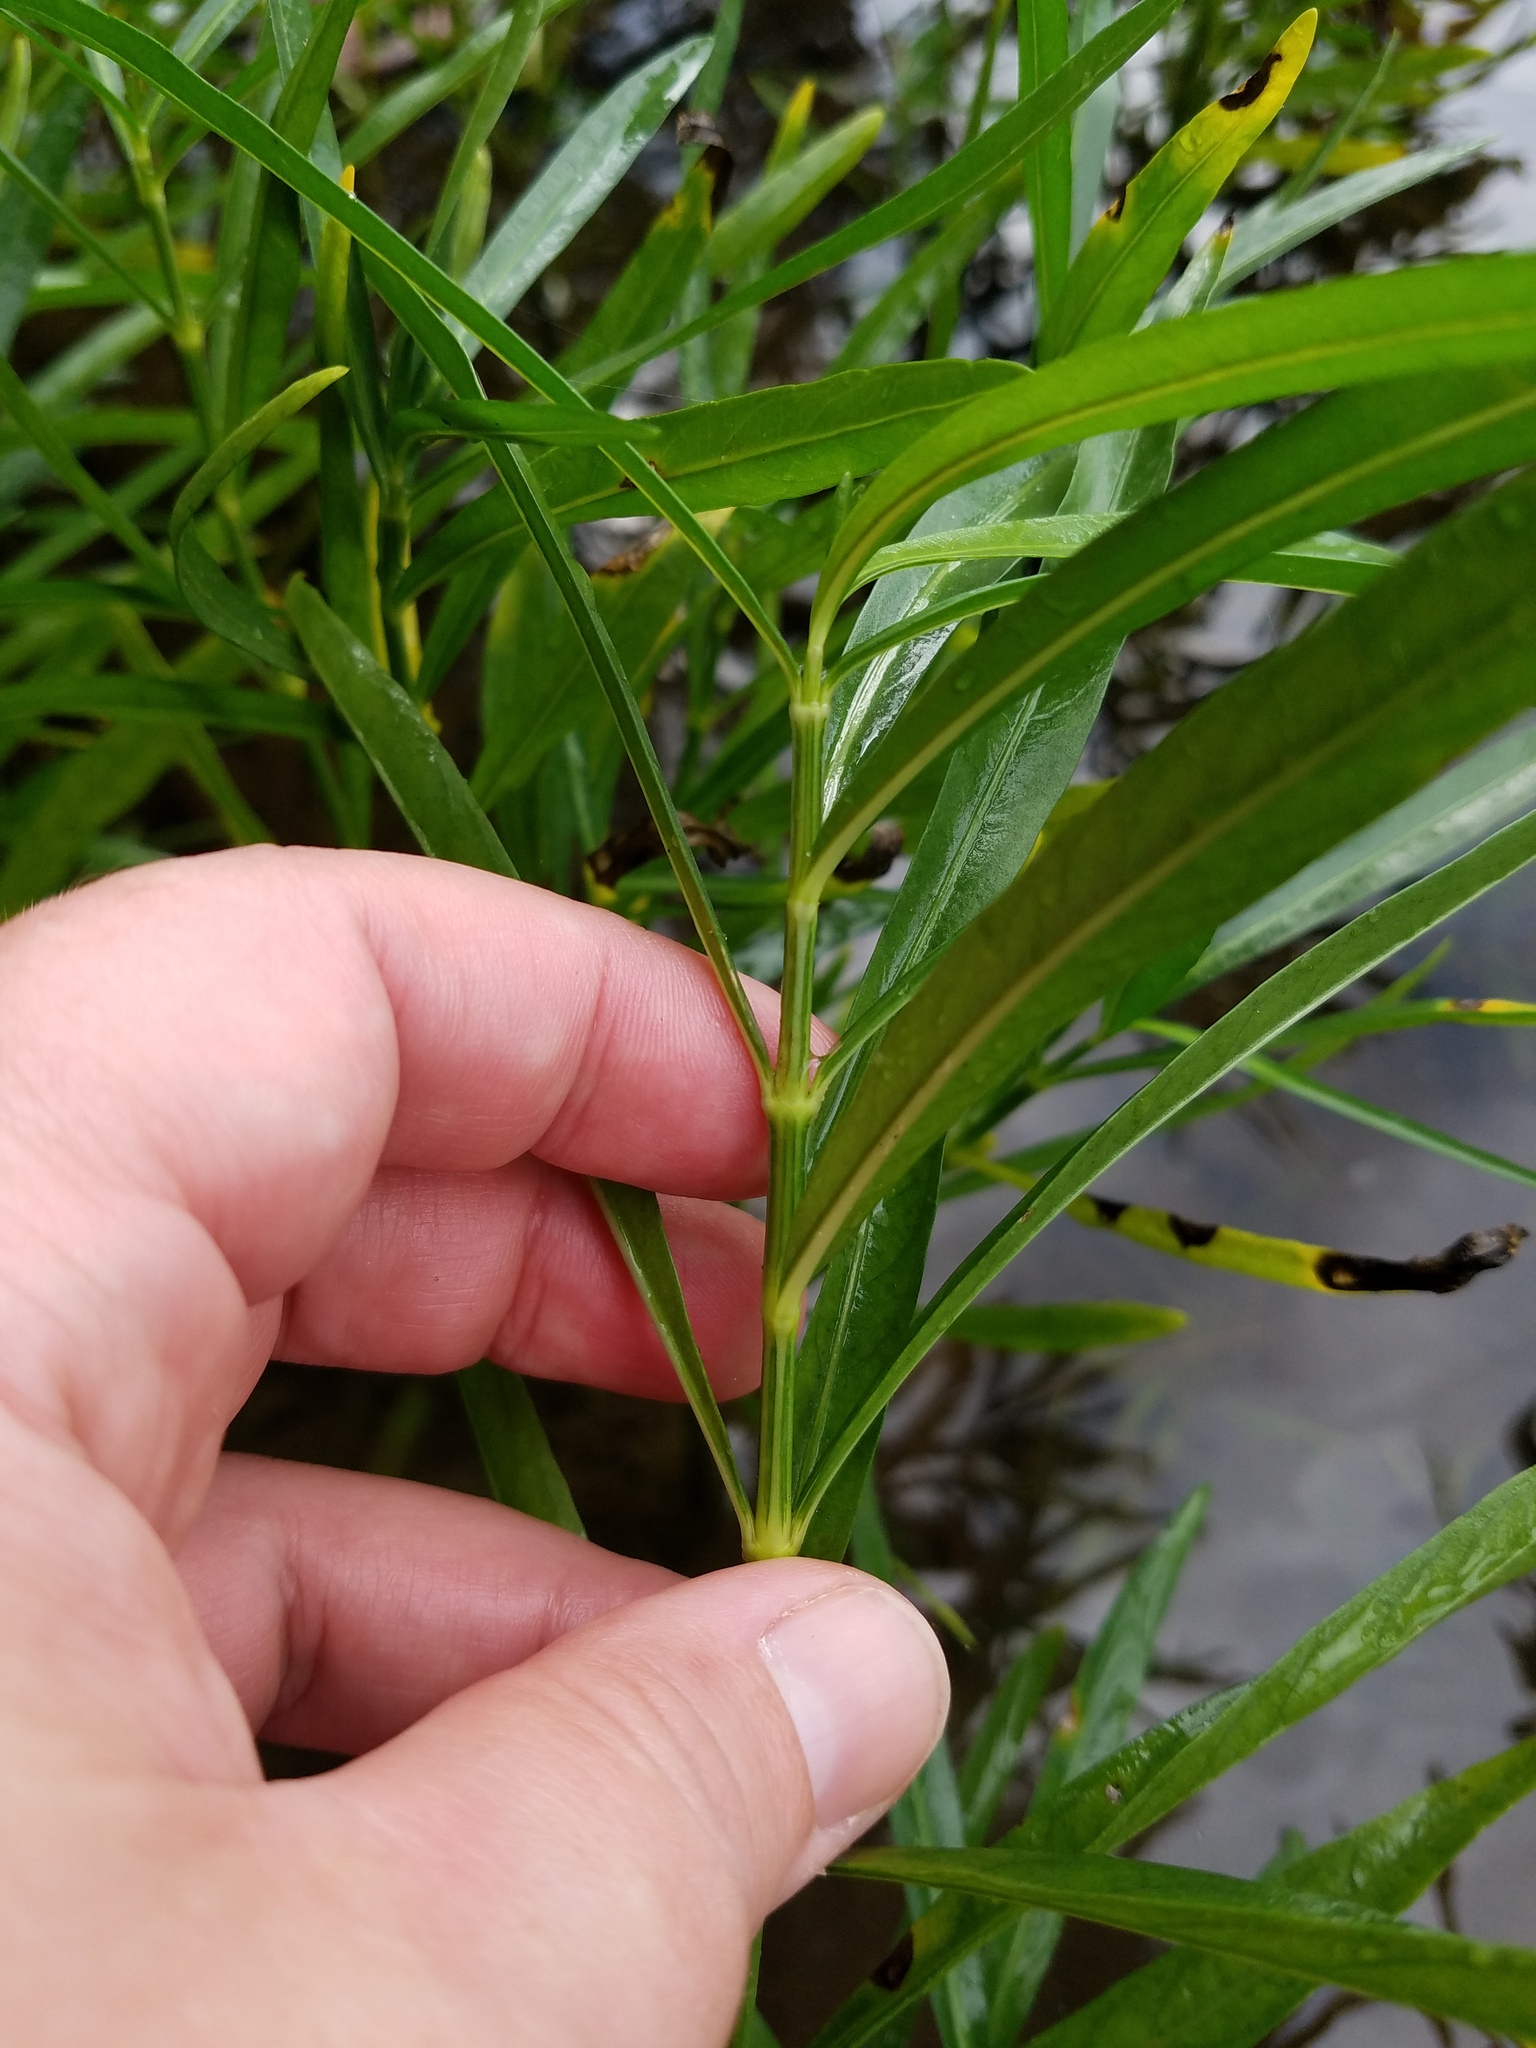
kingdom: Plantae
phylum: Tracheophyta
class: Magnoliopsida
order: Lamiales
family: Acanthaceae
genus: Dianthera
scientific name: Dianthera americana
